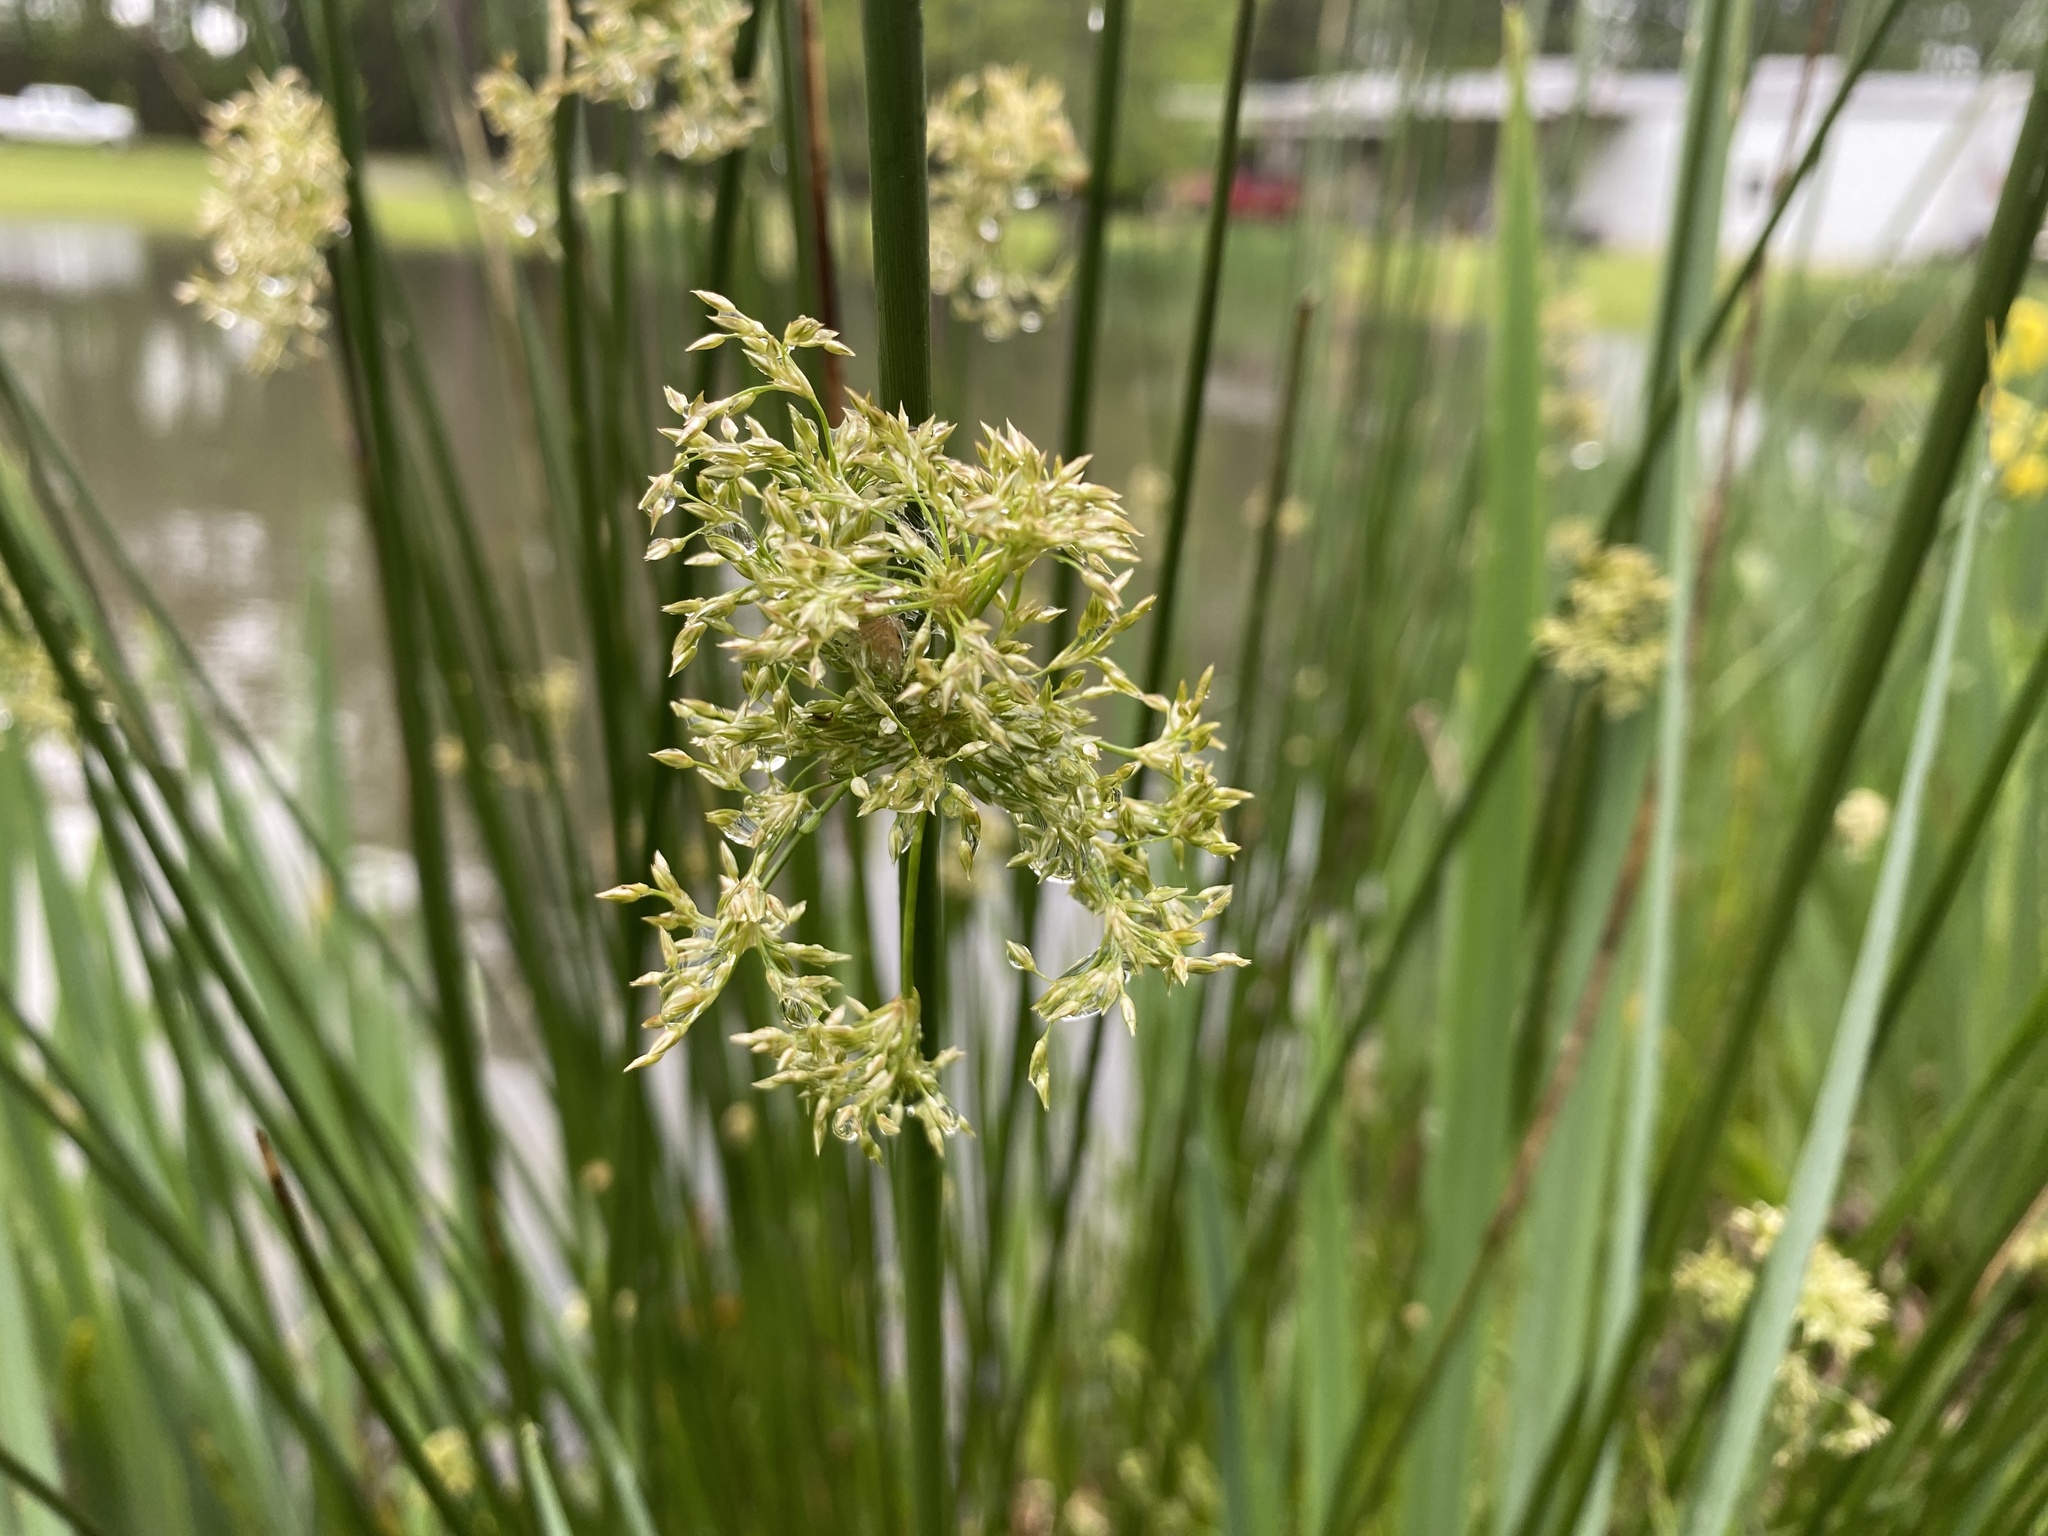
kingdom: Plantae
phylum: Tracheophyta
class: Liliopsida
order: Poales
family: Juncaceae
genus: Juncus
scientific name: Juncus effusus
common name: Soft rush
